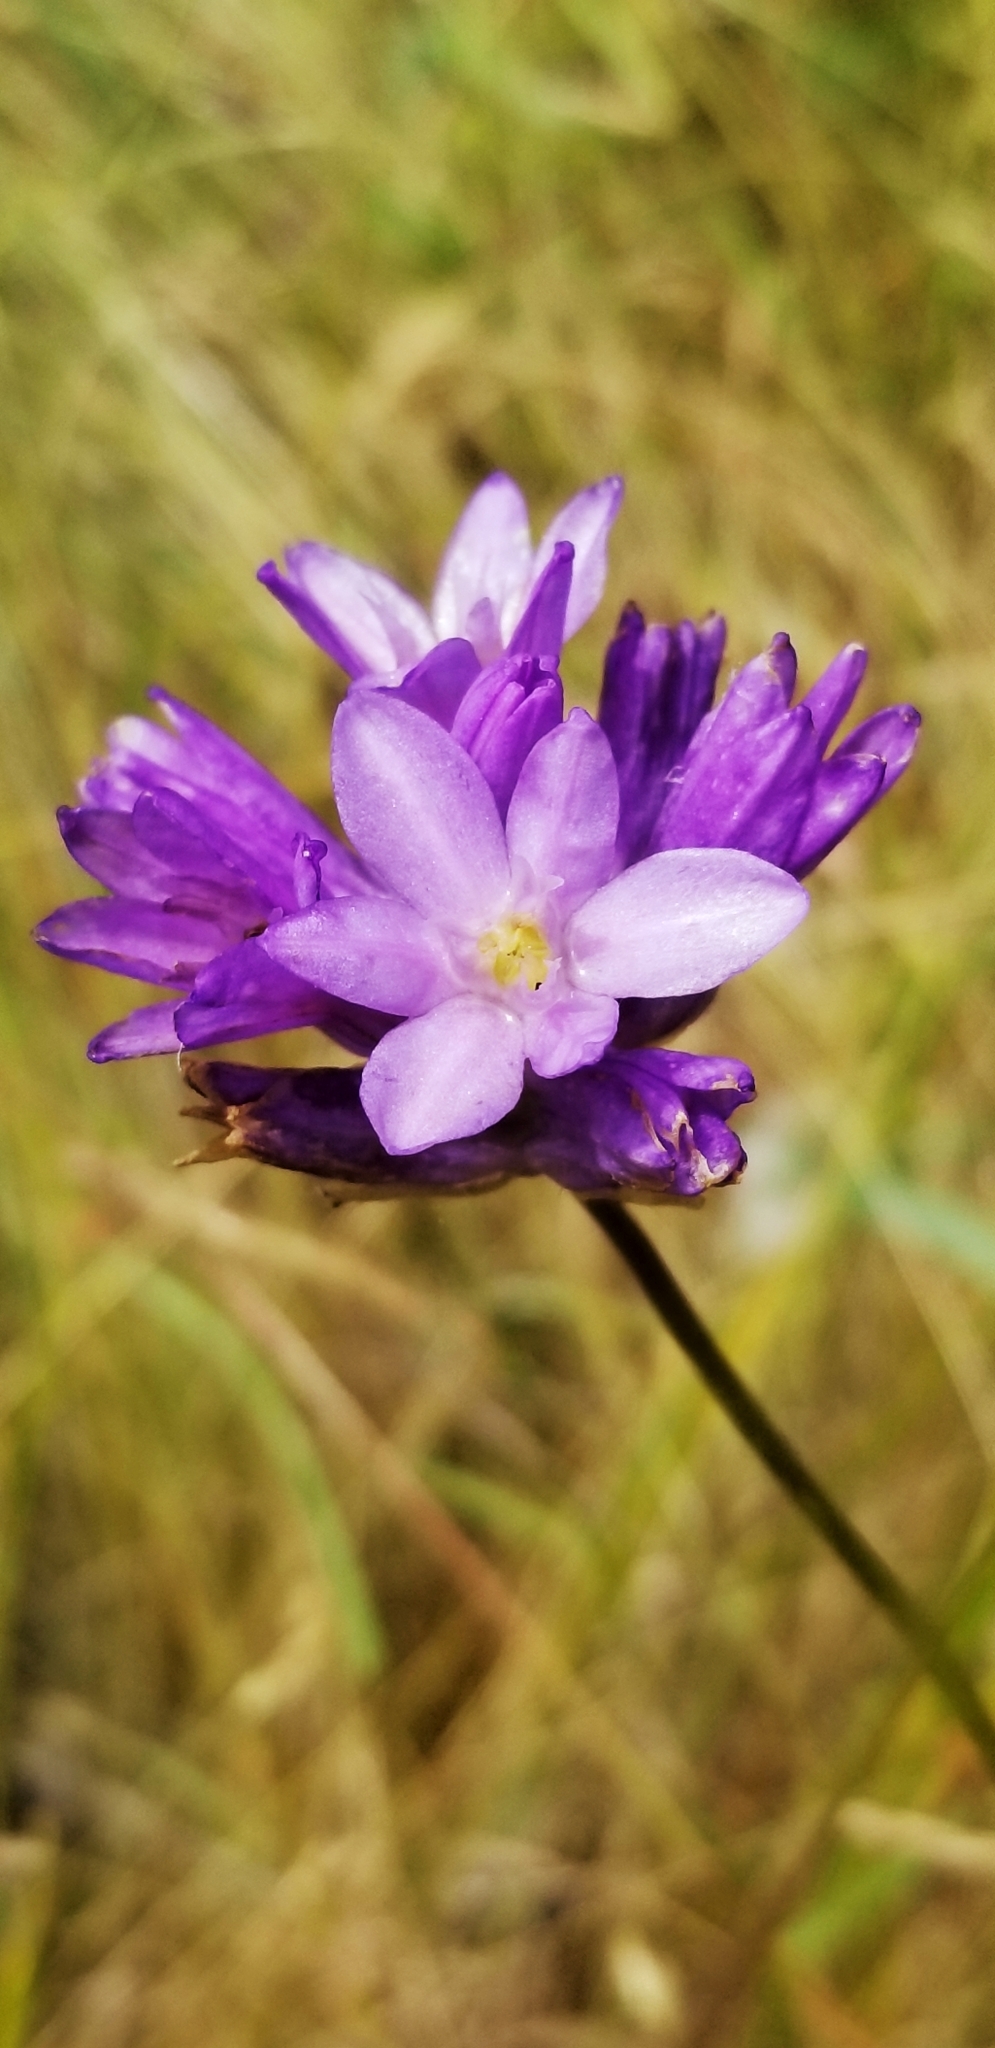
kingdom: Plantae
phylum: Tracheophyta
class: Liliopsida
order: Asparagales
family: Asparagaceae
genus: Dichelostemma
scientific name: Dichelostemma congestum
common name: Fork-tooth ookow
